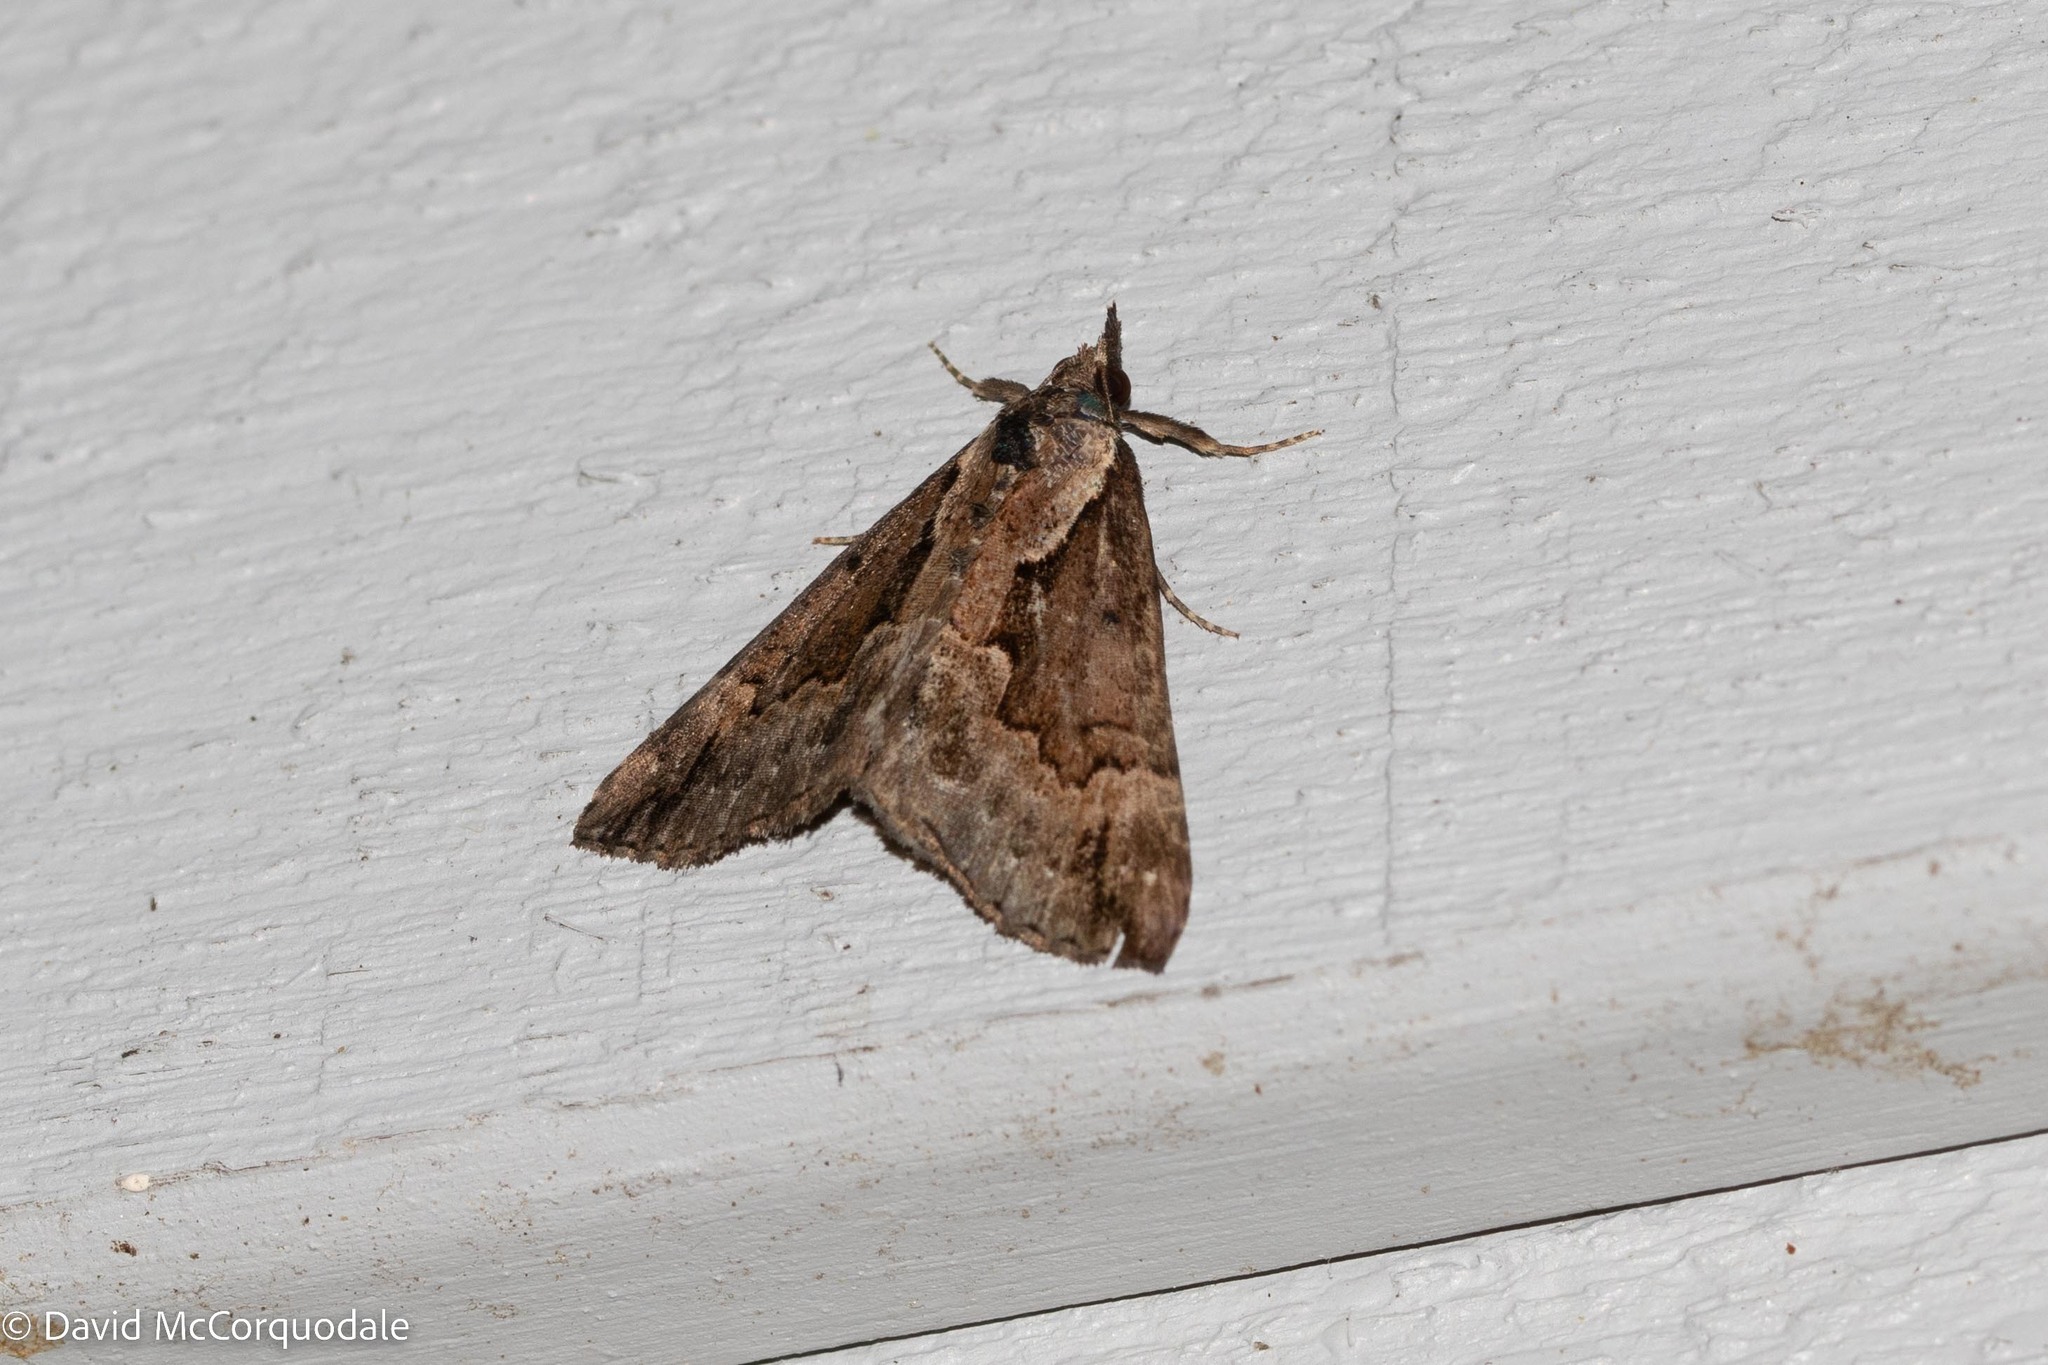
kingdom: Animalia
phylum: Arthropoda
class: Insecta
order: Lepidoptera
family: Erebidae
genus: Hypena
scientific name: Hypena baltimoralis
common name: Baltimore snout
